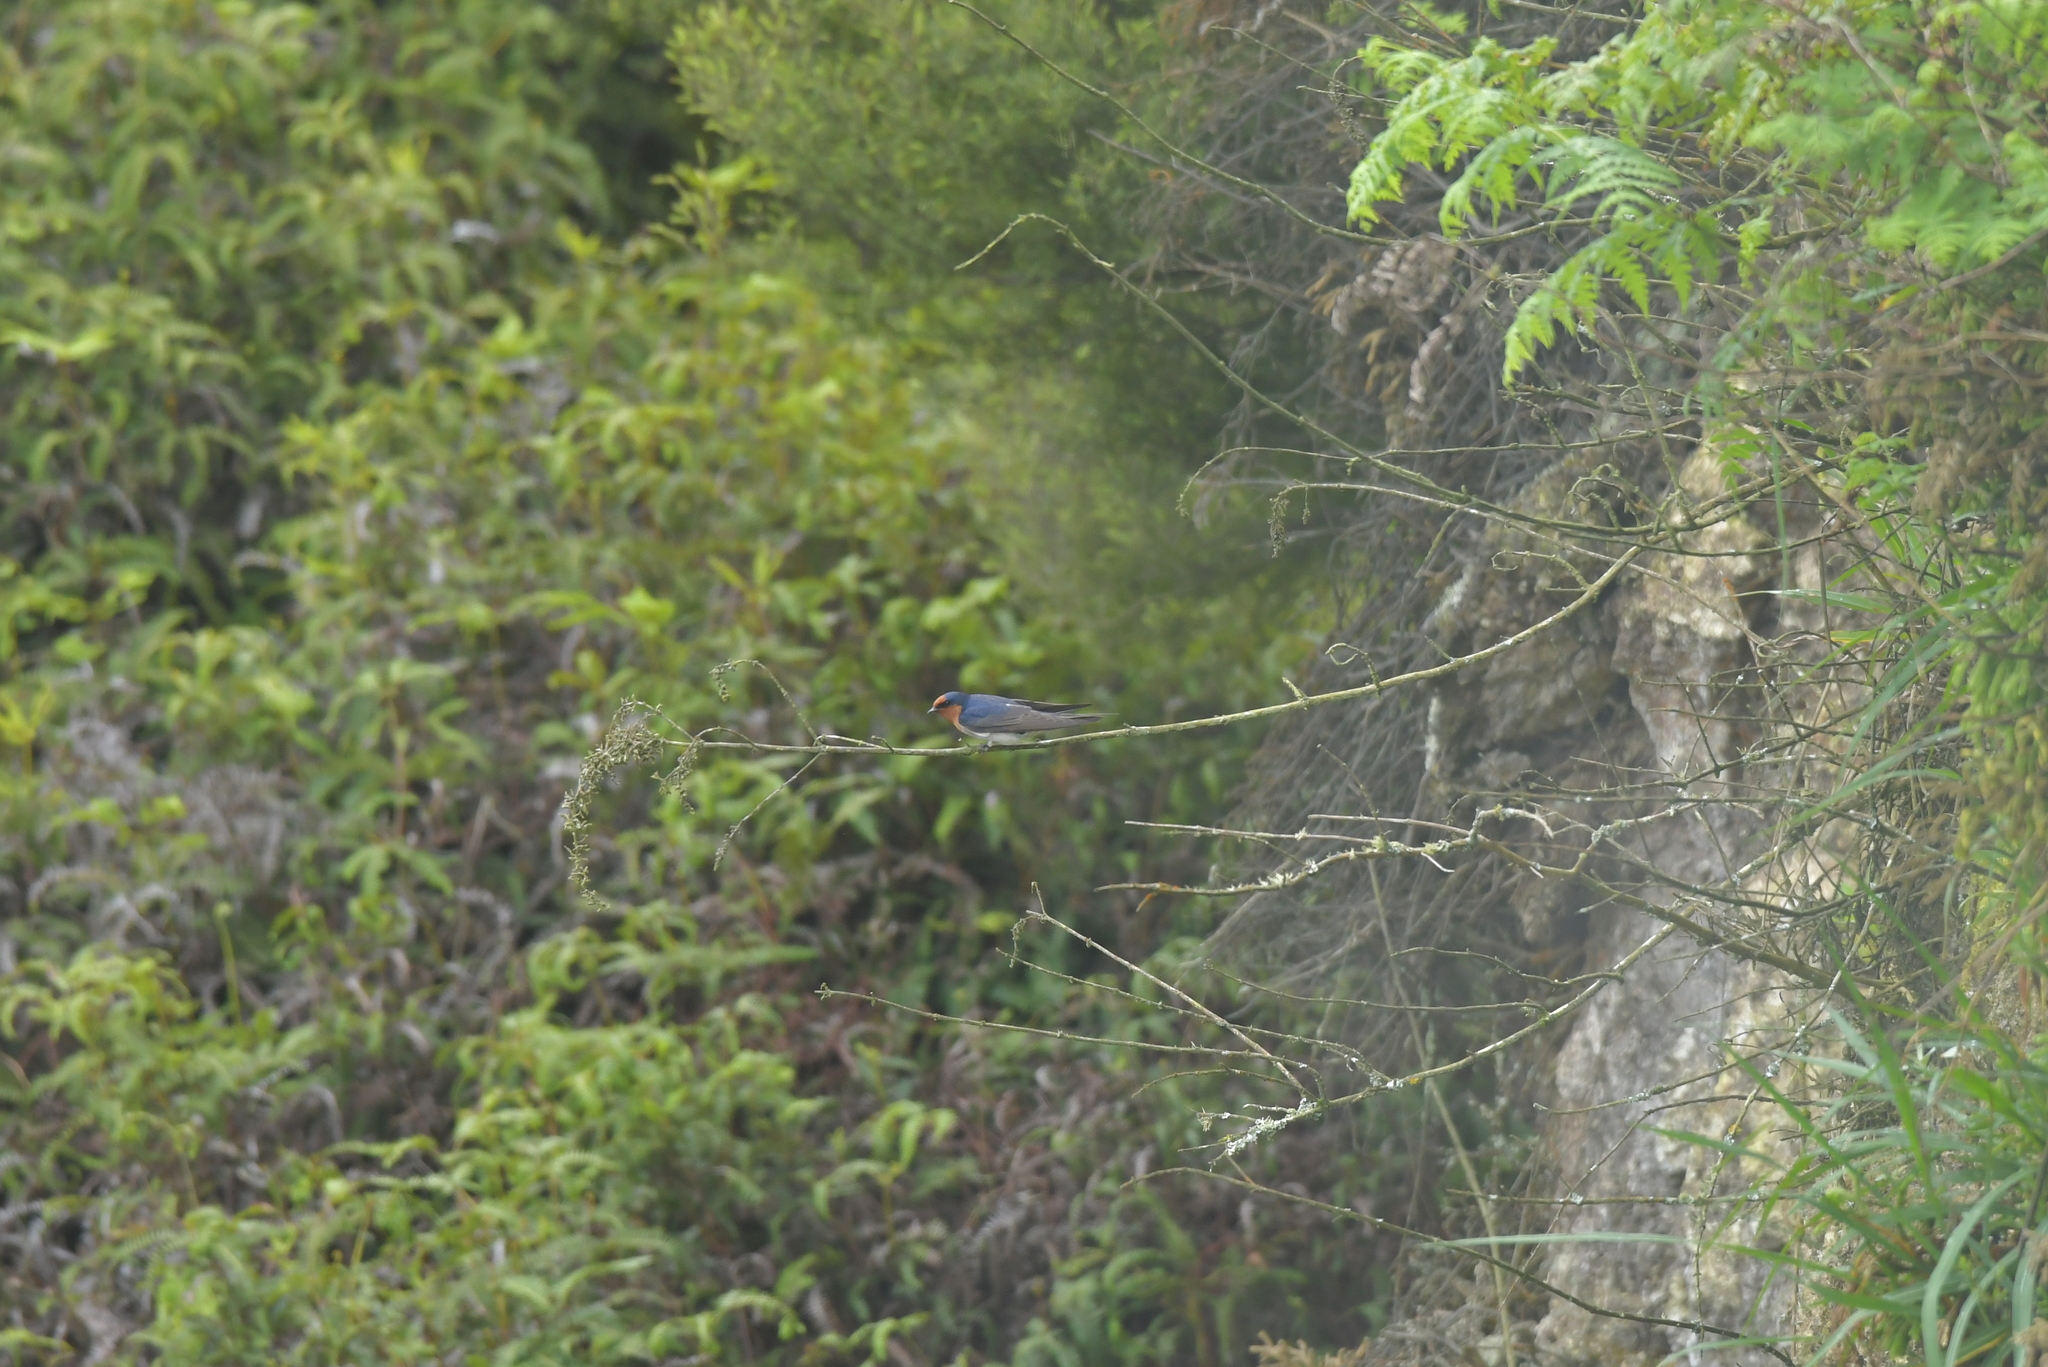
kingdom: Animalia
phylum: Chordata
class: Aves
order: Passeriformes
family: Hirundinidae
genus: Hirundo
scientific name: Hirundo neoxena
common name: Welcome swallow
